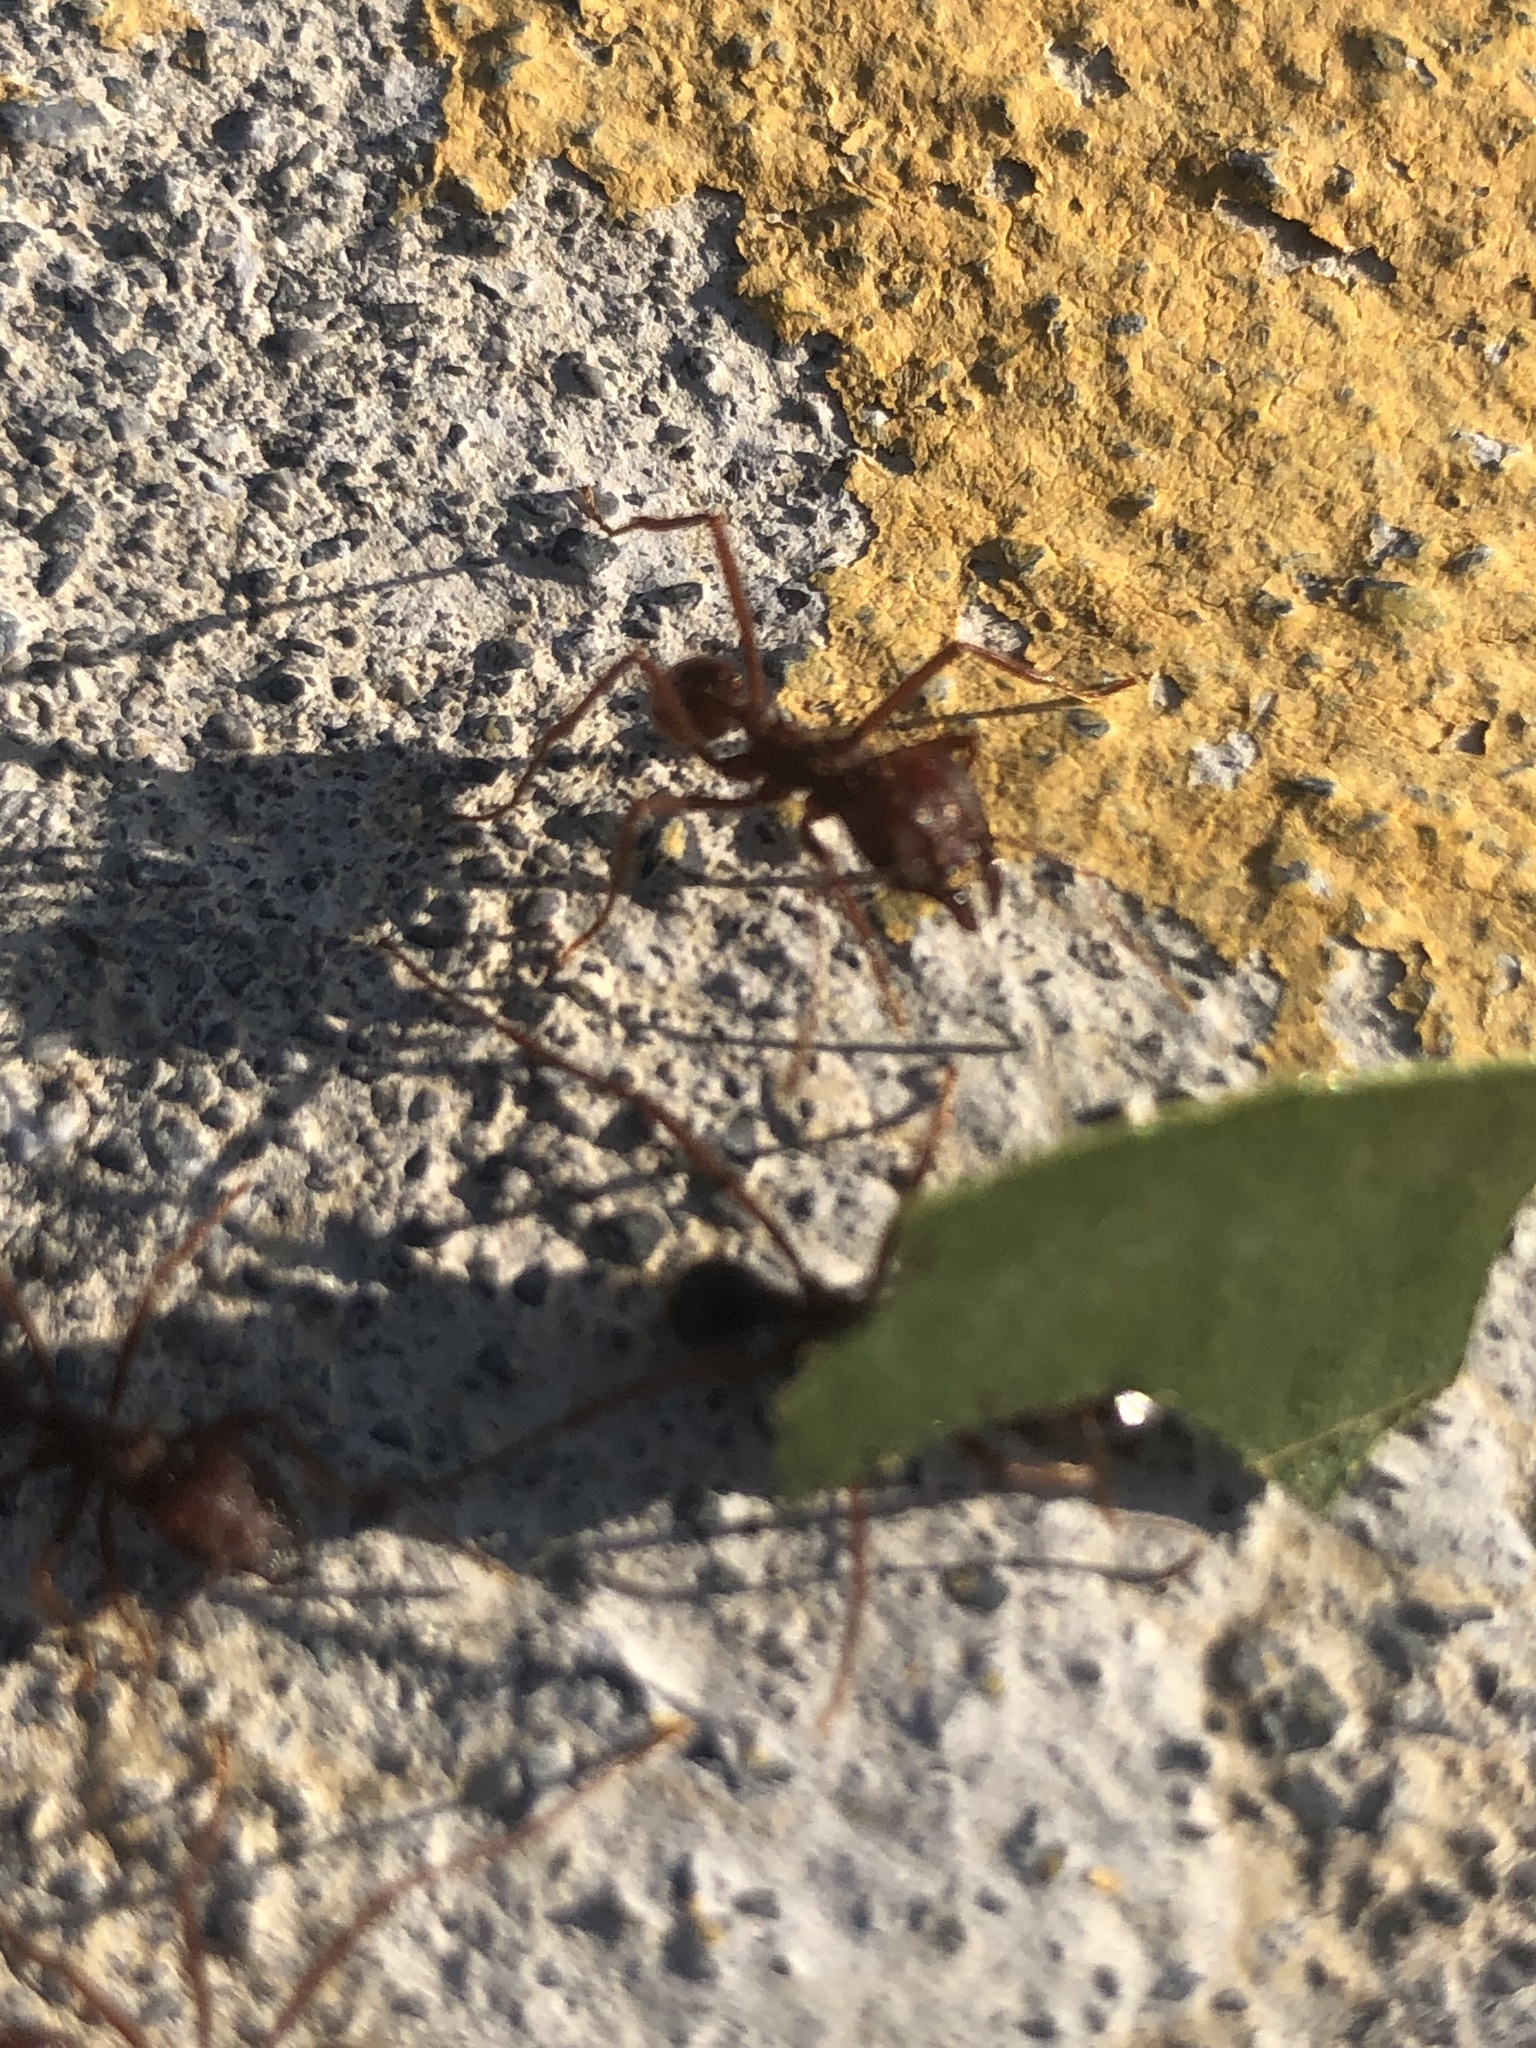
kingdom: Animalia
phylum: Arthropoda
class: Insecta
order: Hymenoptera
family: Formicidae
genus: Atta
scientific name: Atta mexicana
